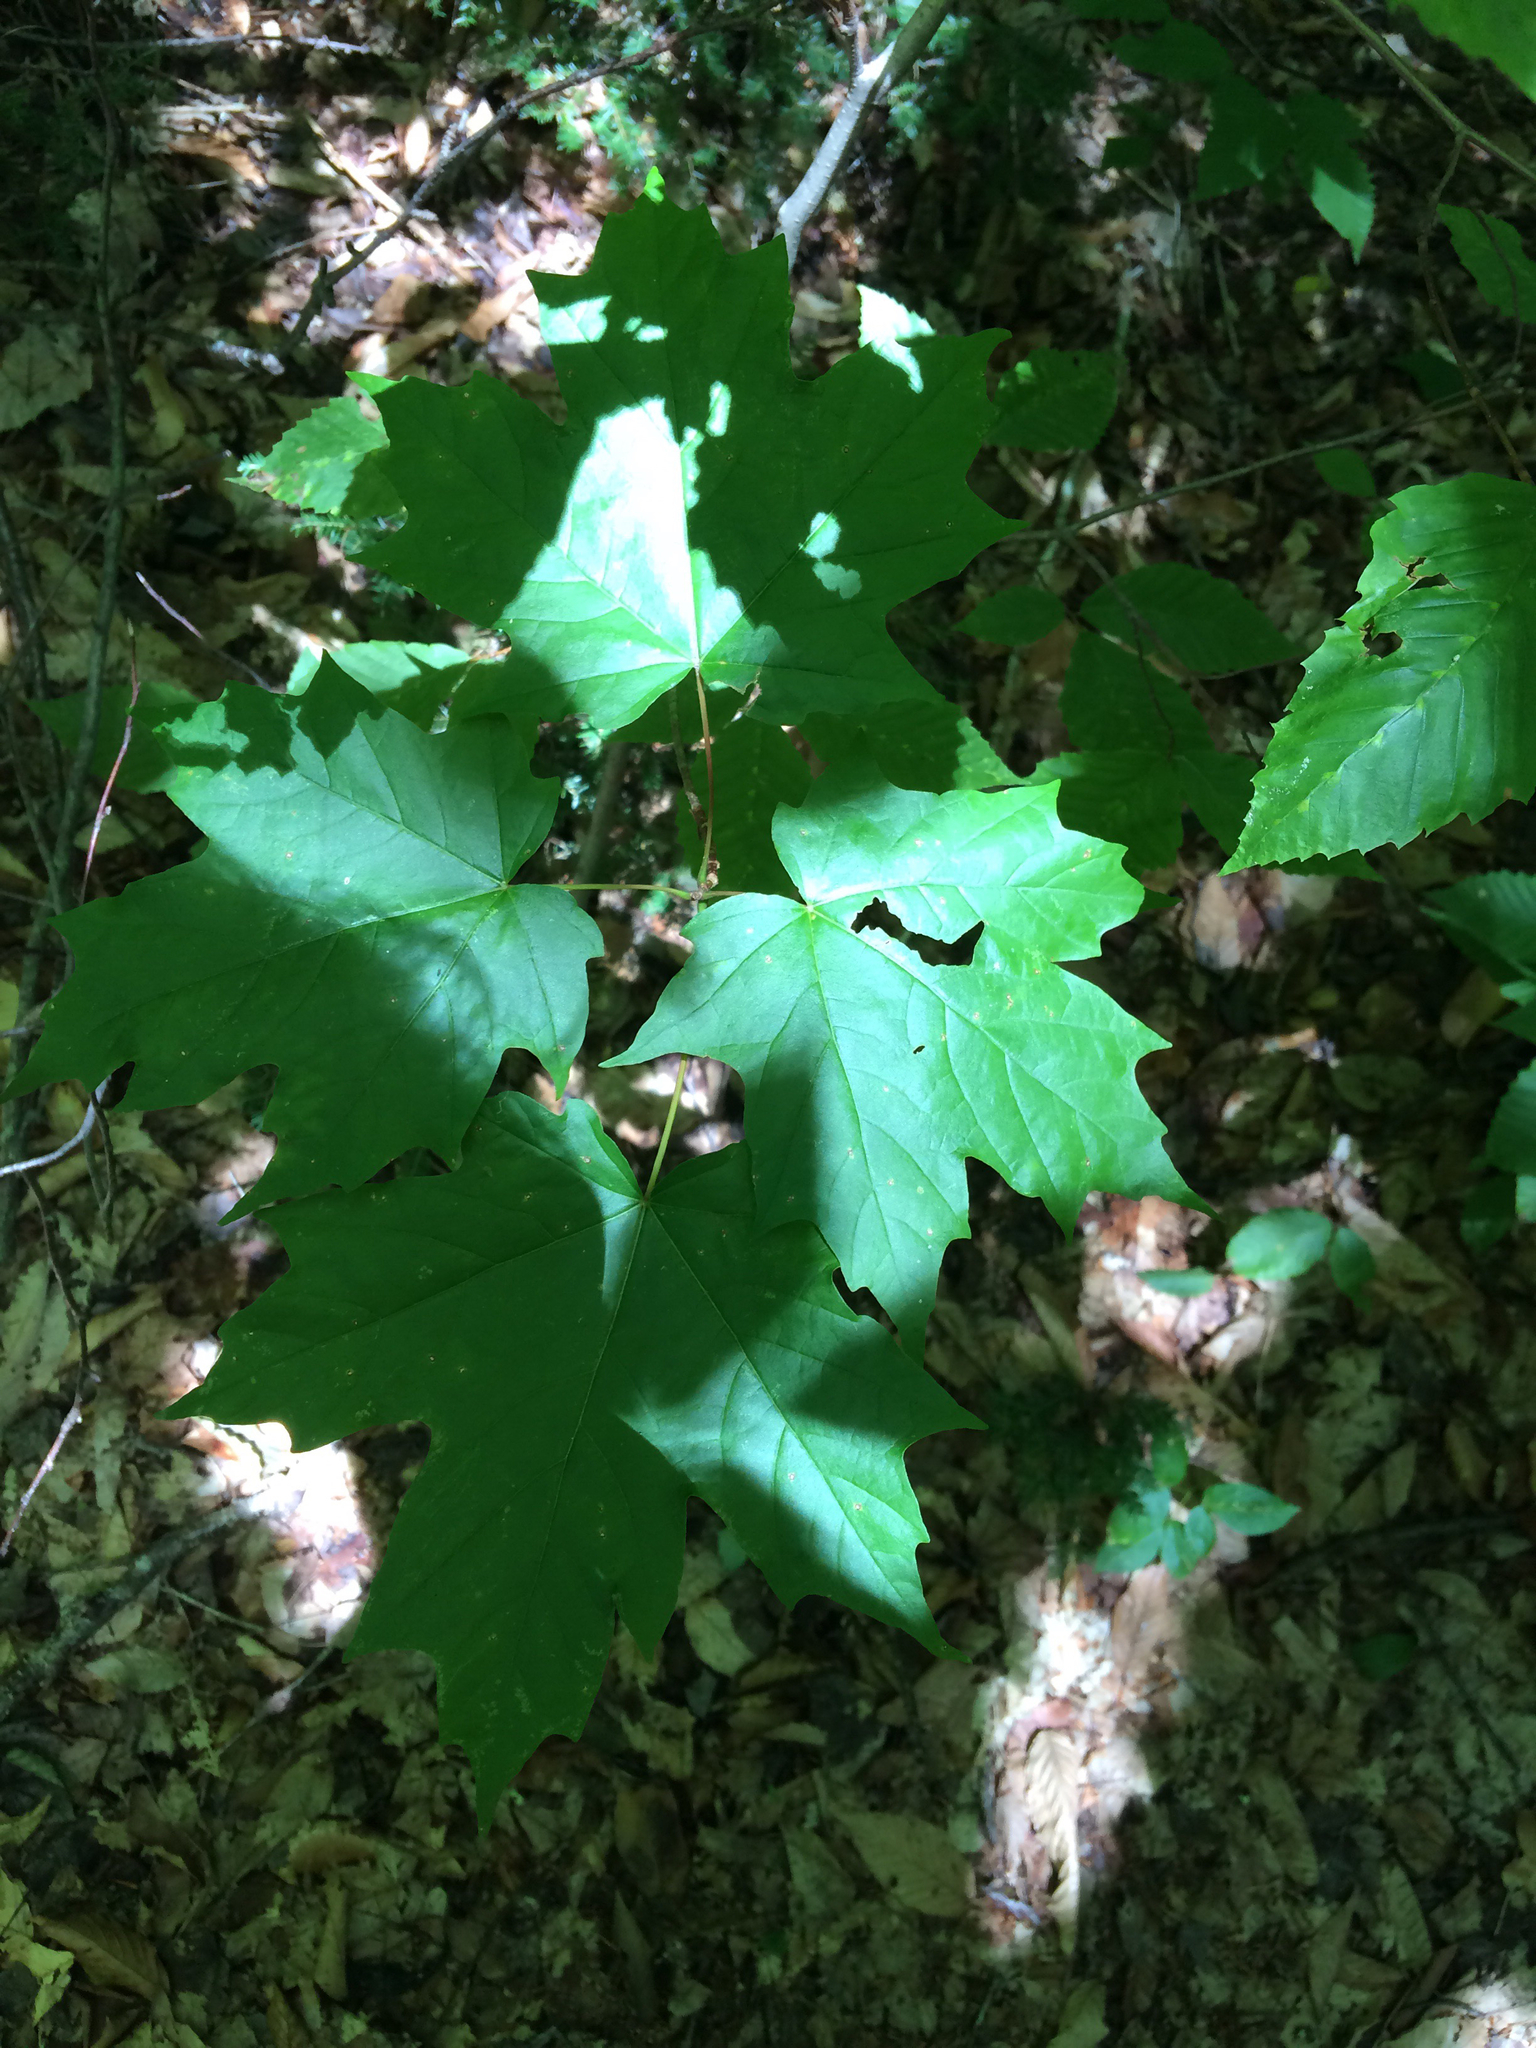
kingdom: Plantae
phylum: Tracheophyta
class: Magnoliopsida
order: Sapindales
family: Sapindaceae
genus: Acer
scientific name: Acer saccharum
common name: Sugar maple
